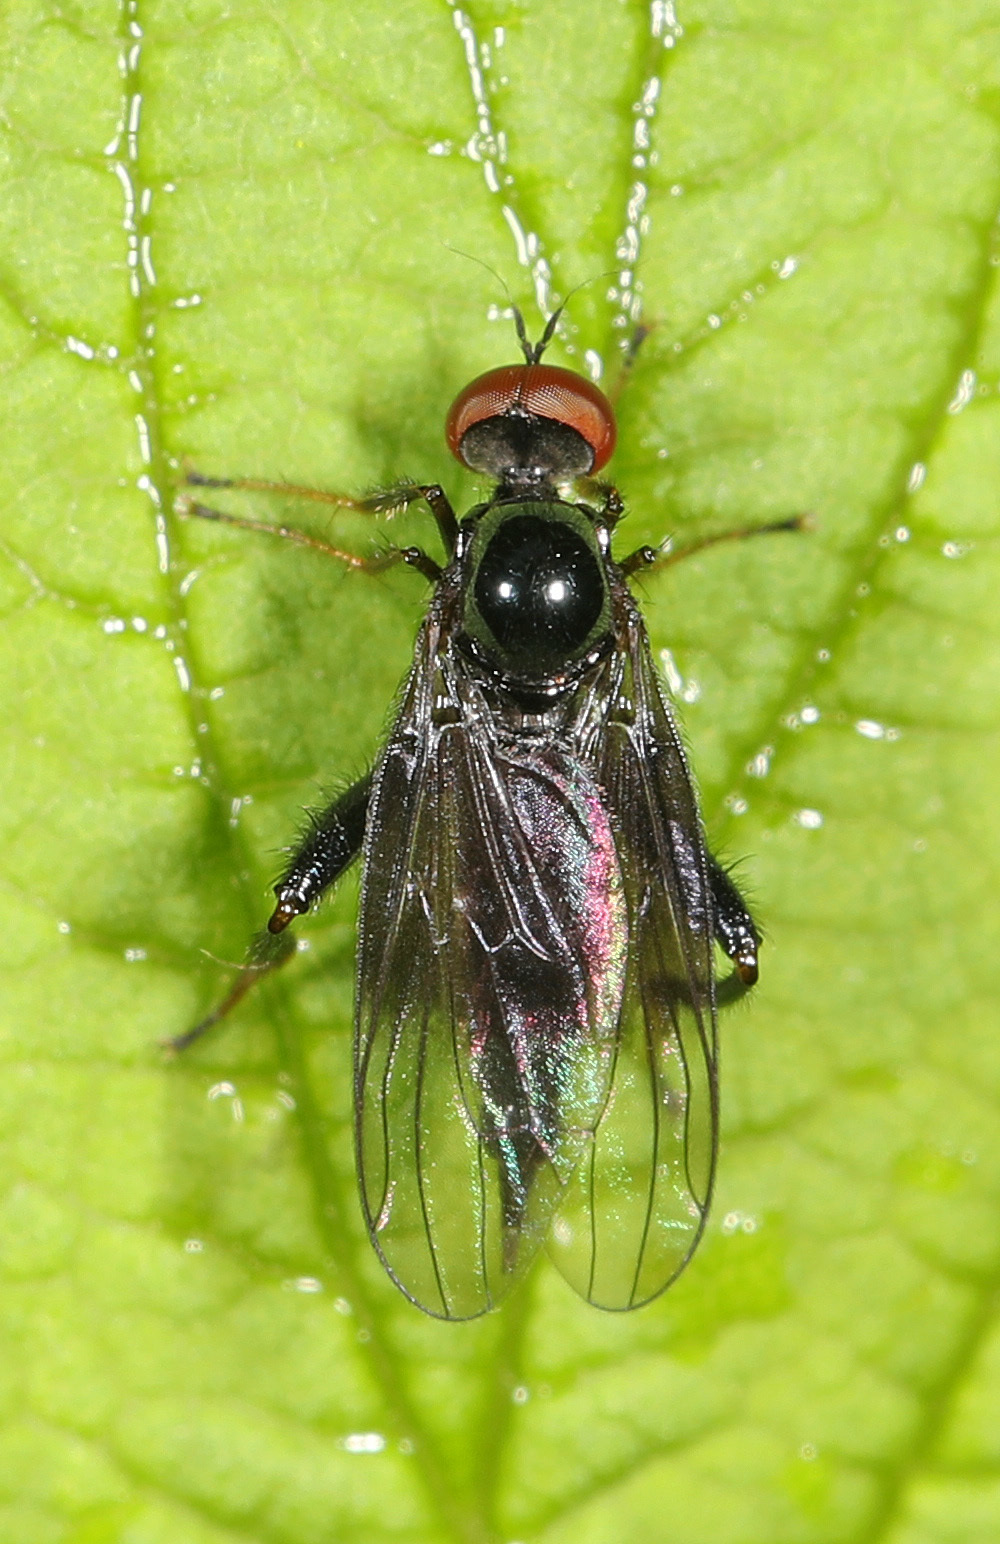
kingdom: Animalia
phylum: Arthropoda
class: Insecta
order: Diptera
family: Hybotidae
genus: Euhybus
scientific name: Euhybus purpureus
